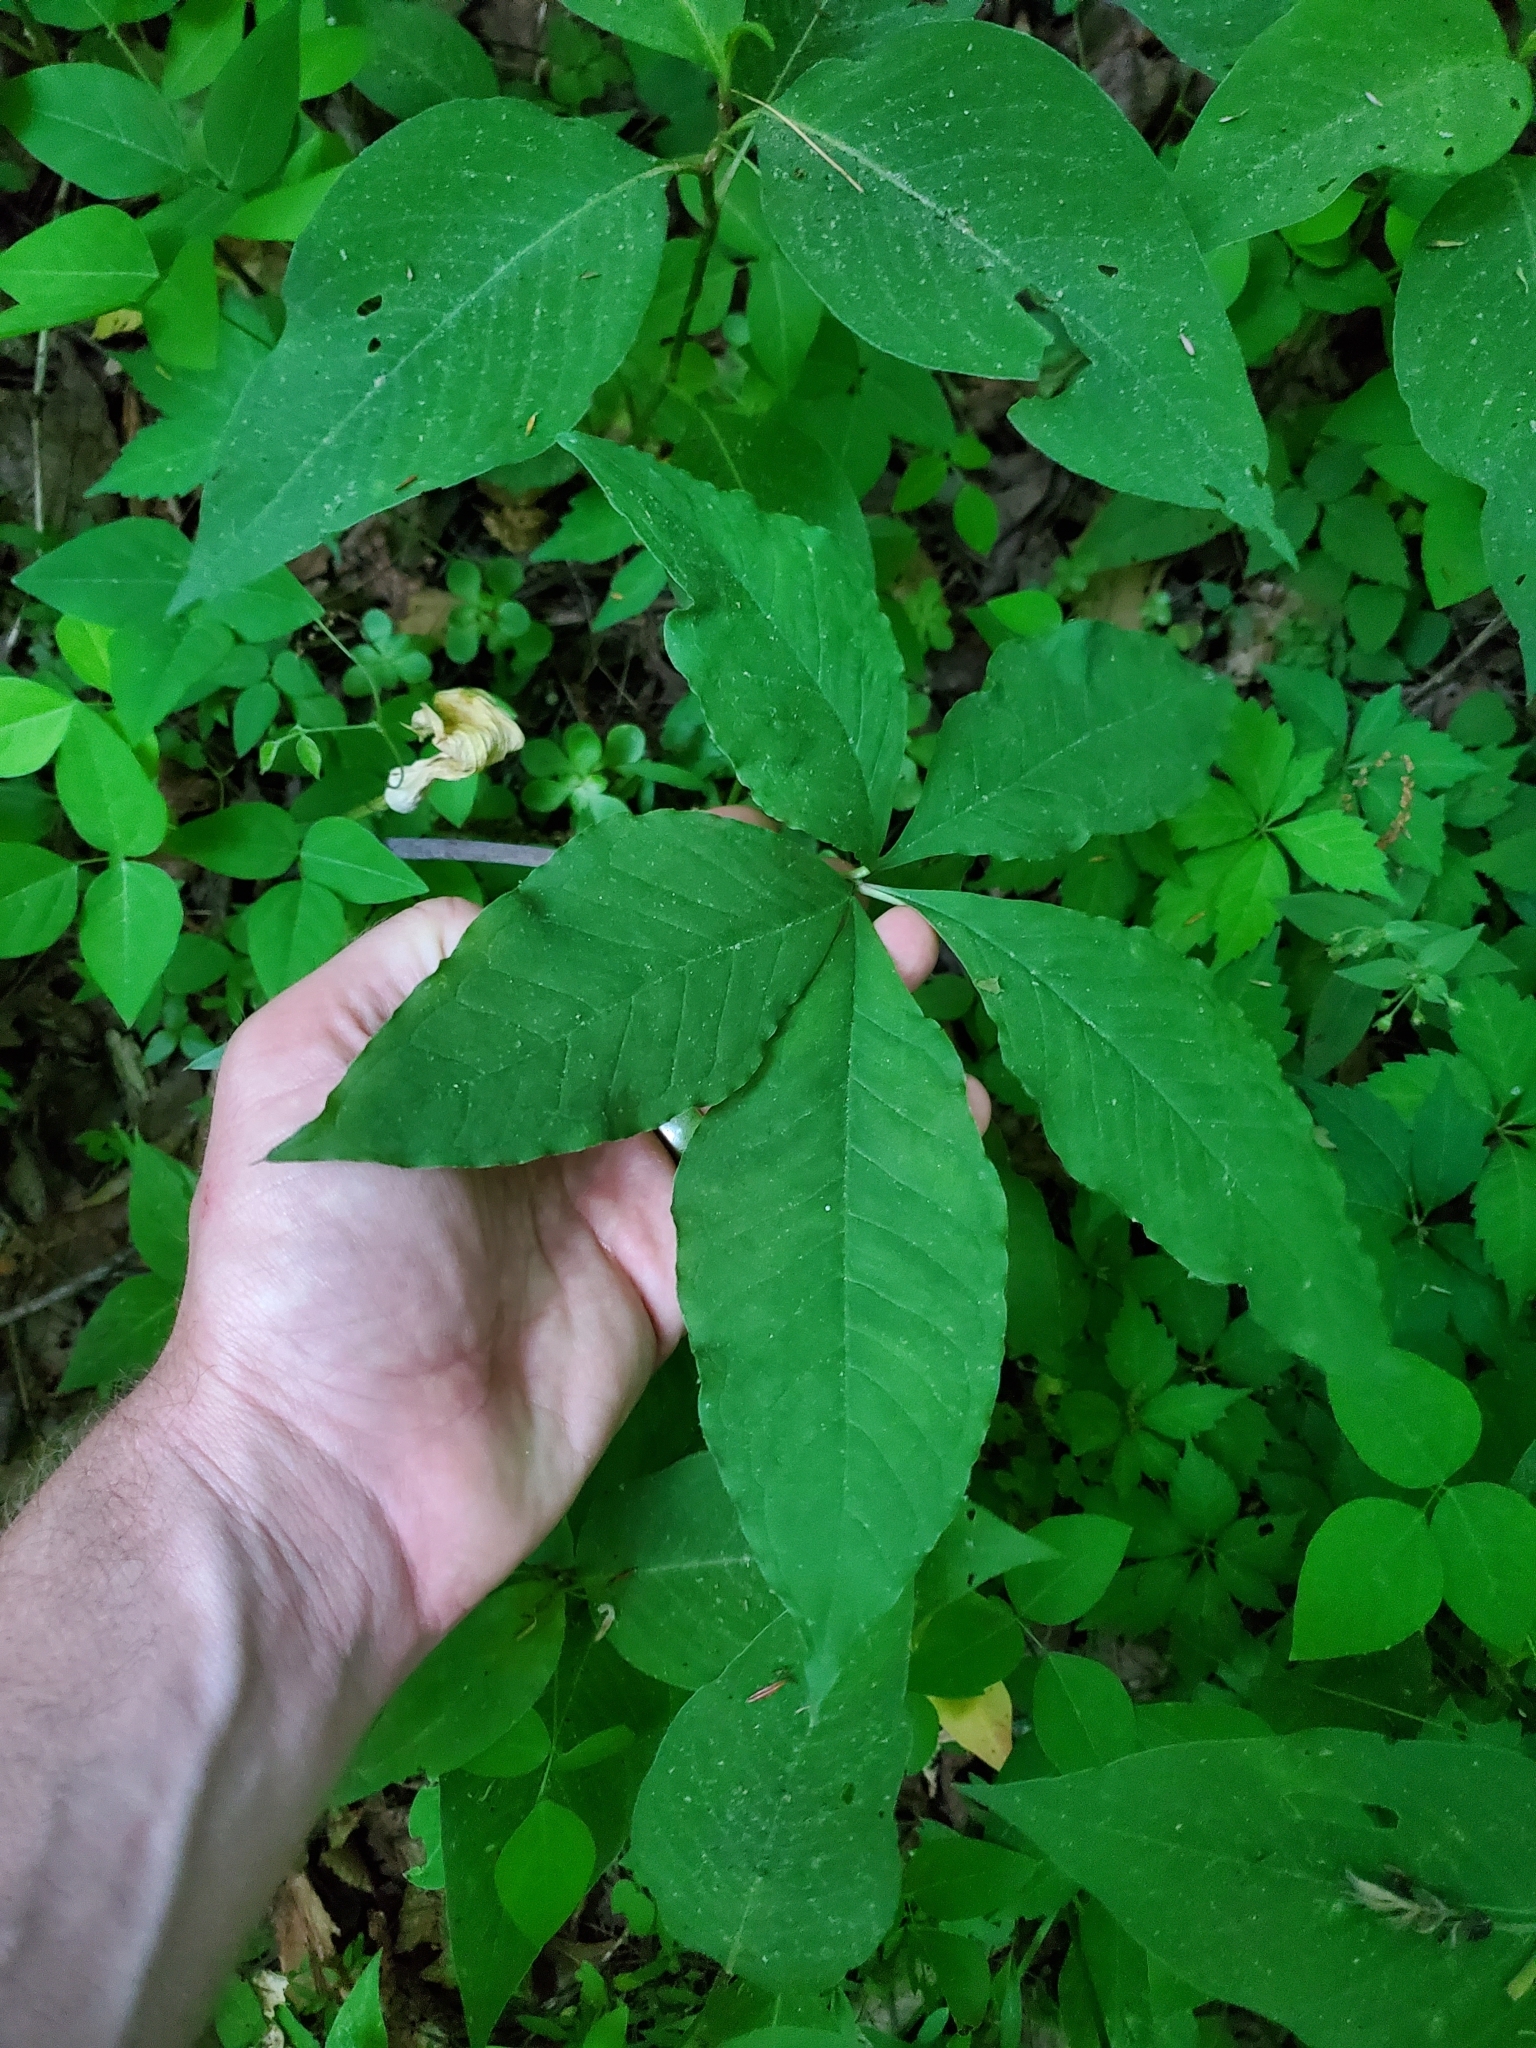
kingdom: Plantae
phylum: Tracheophyta
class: Liliopsida
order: Alismatales
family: Araceae
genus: Arisaema
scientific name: Arisaema quinatum
